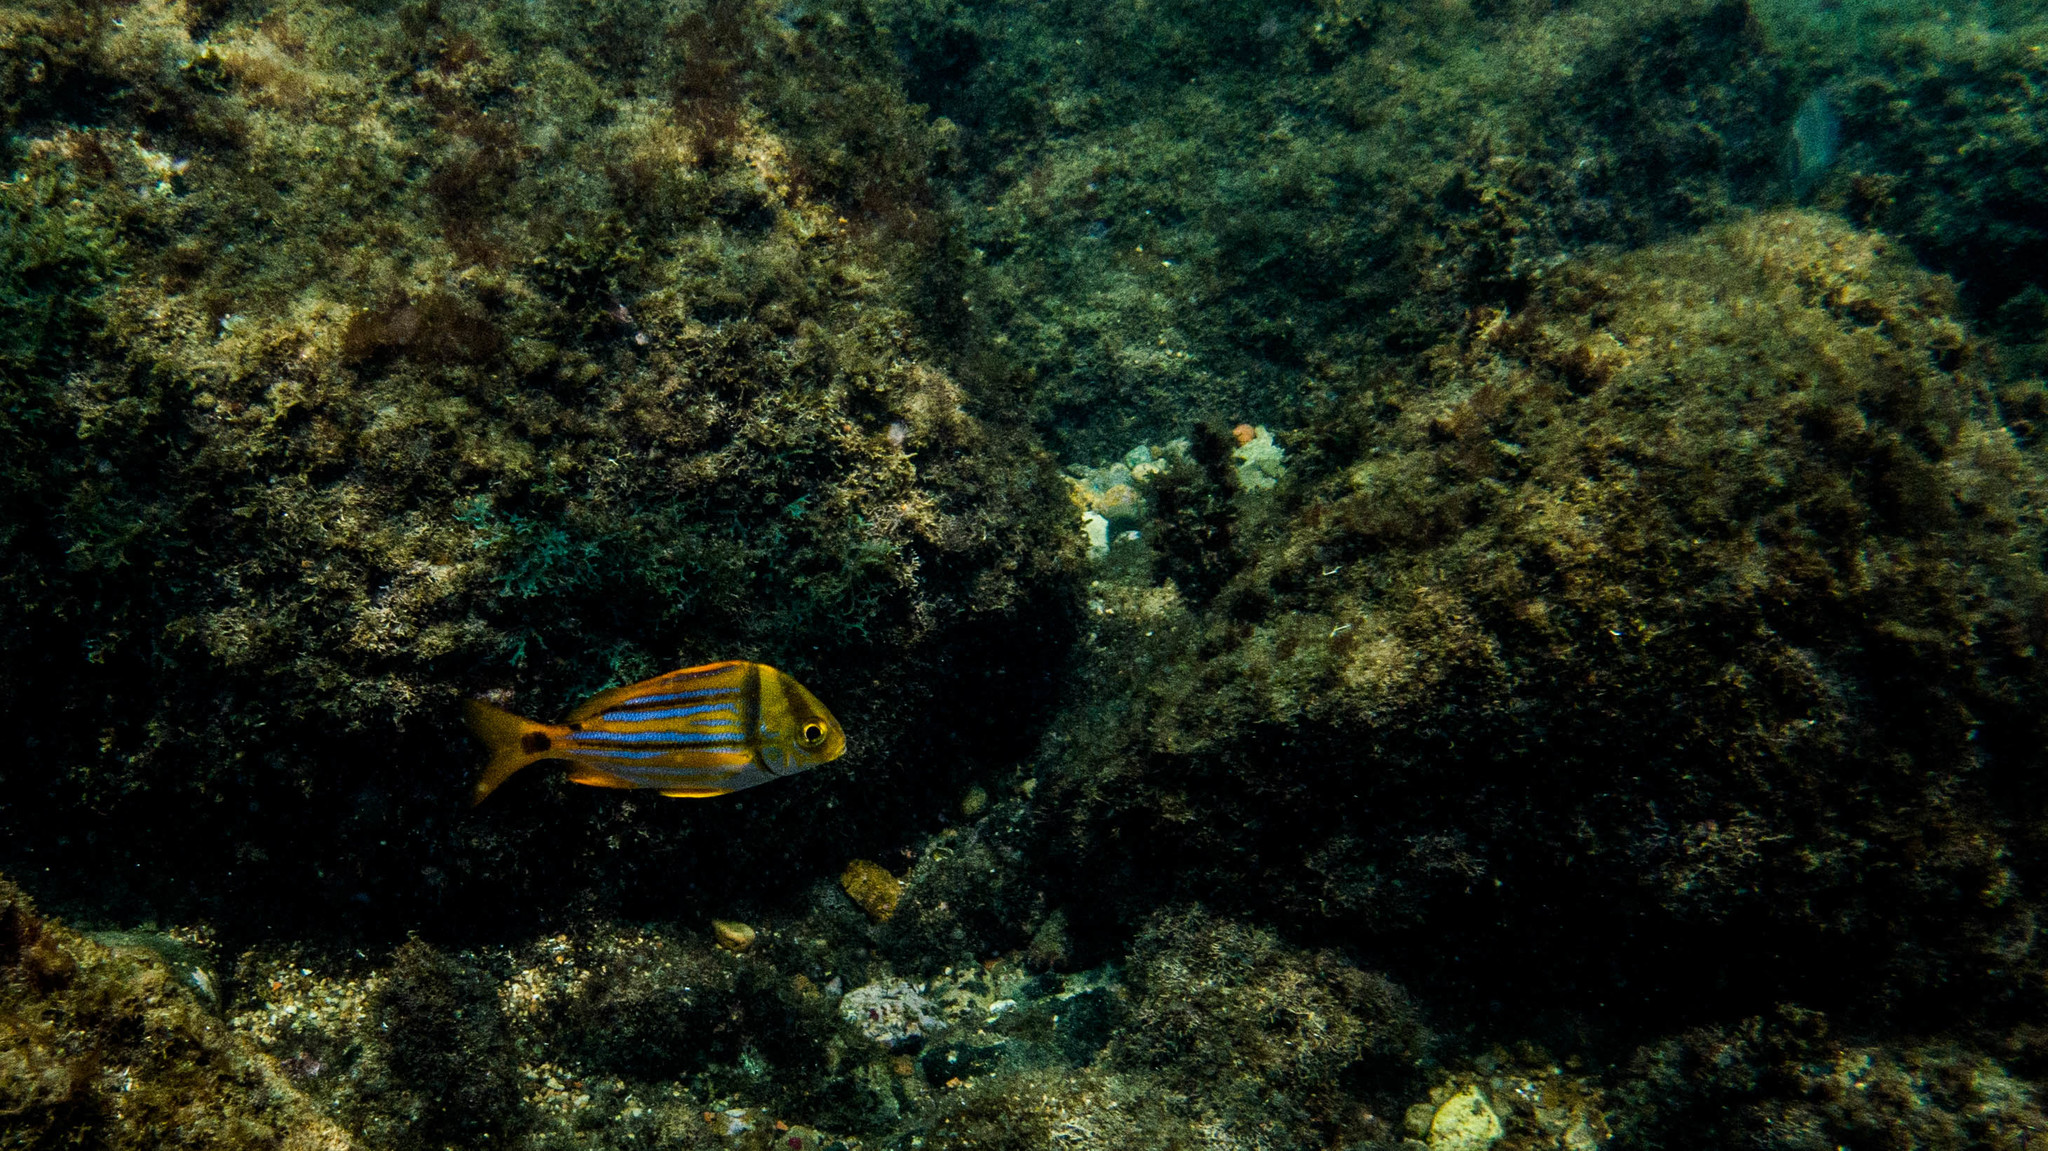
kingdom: Animalia
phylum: Chordata
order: Perciformes
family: Haemulidae
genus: Anisotremus
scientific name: Anisotremus virginicus
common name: Porkfish
